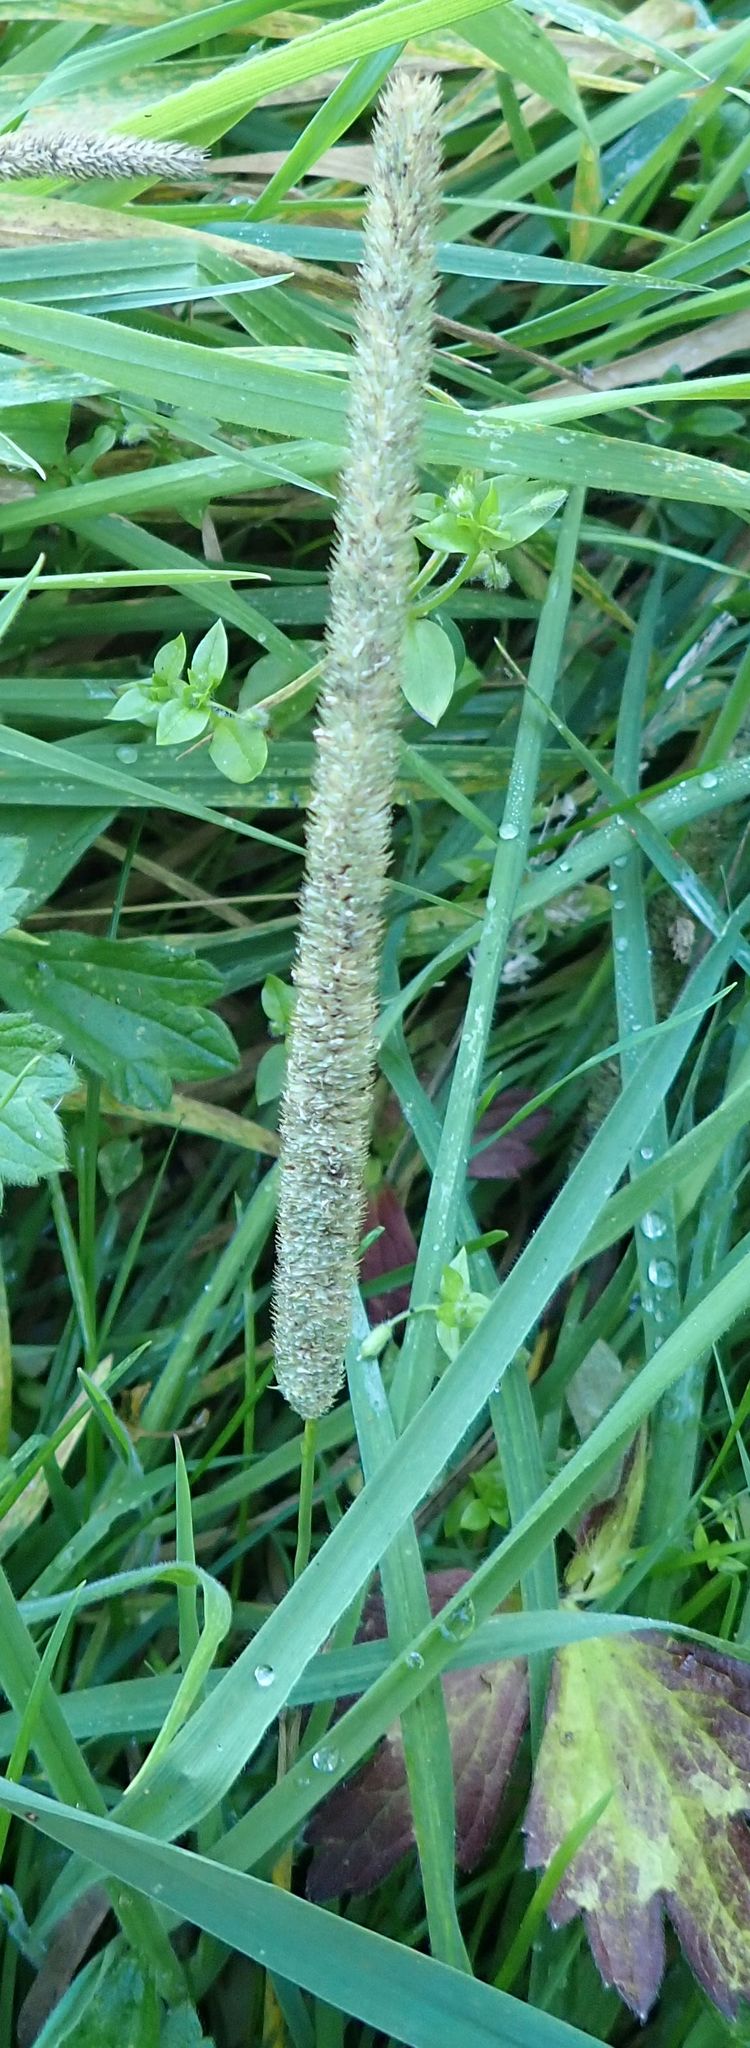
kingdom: Plantae
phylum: Tracheophyta
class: Liliopsida
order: Poales
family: Poaceae
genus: Phleum
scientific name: Phleum pratense
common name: Timothy grass
